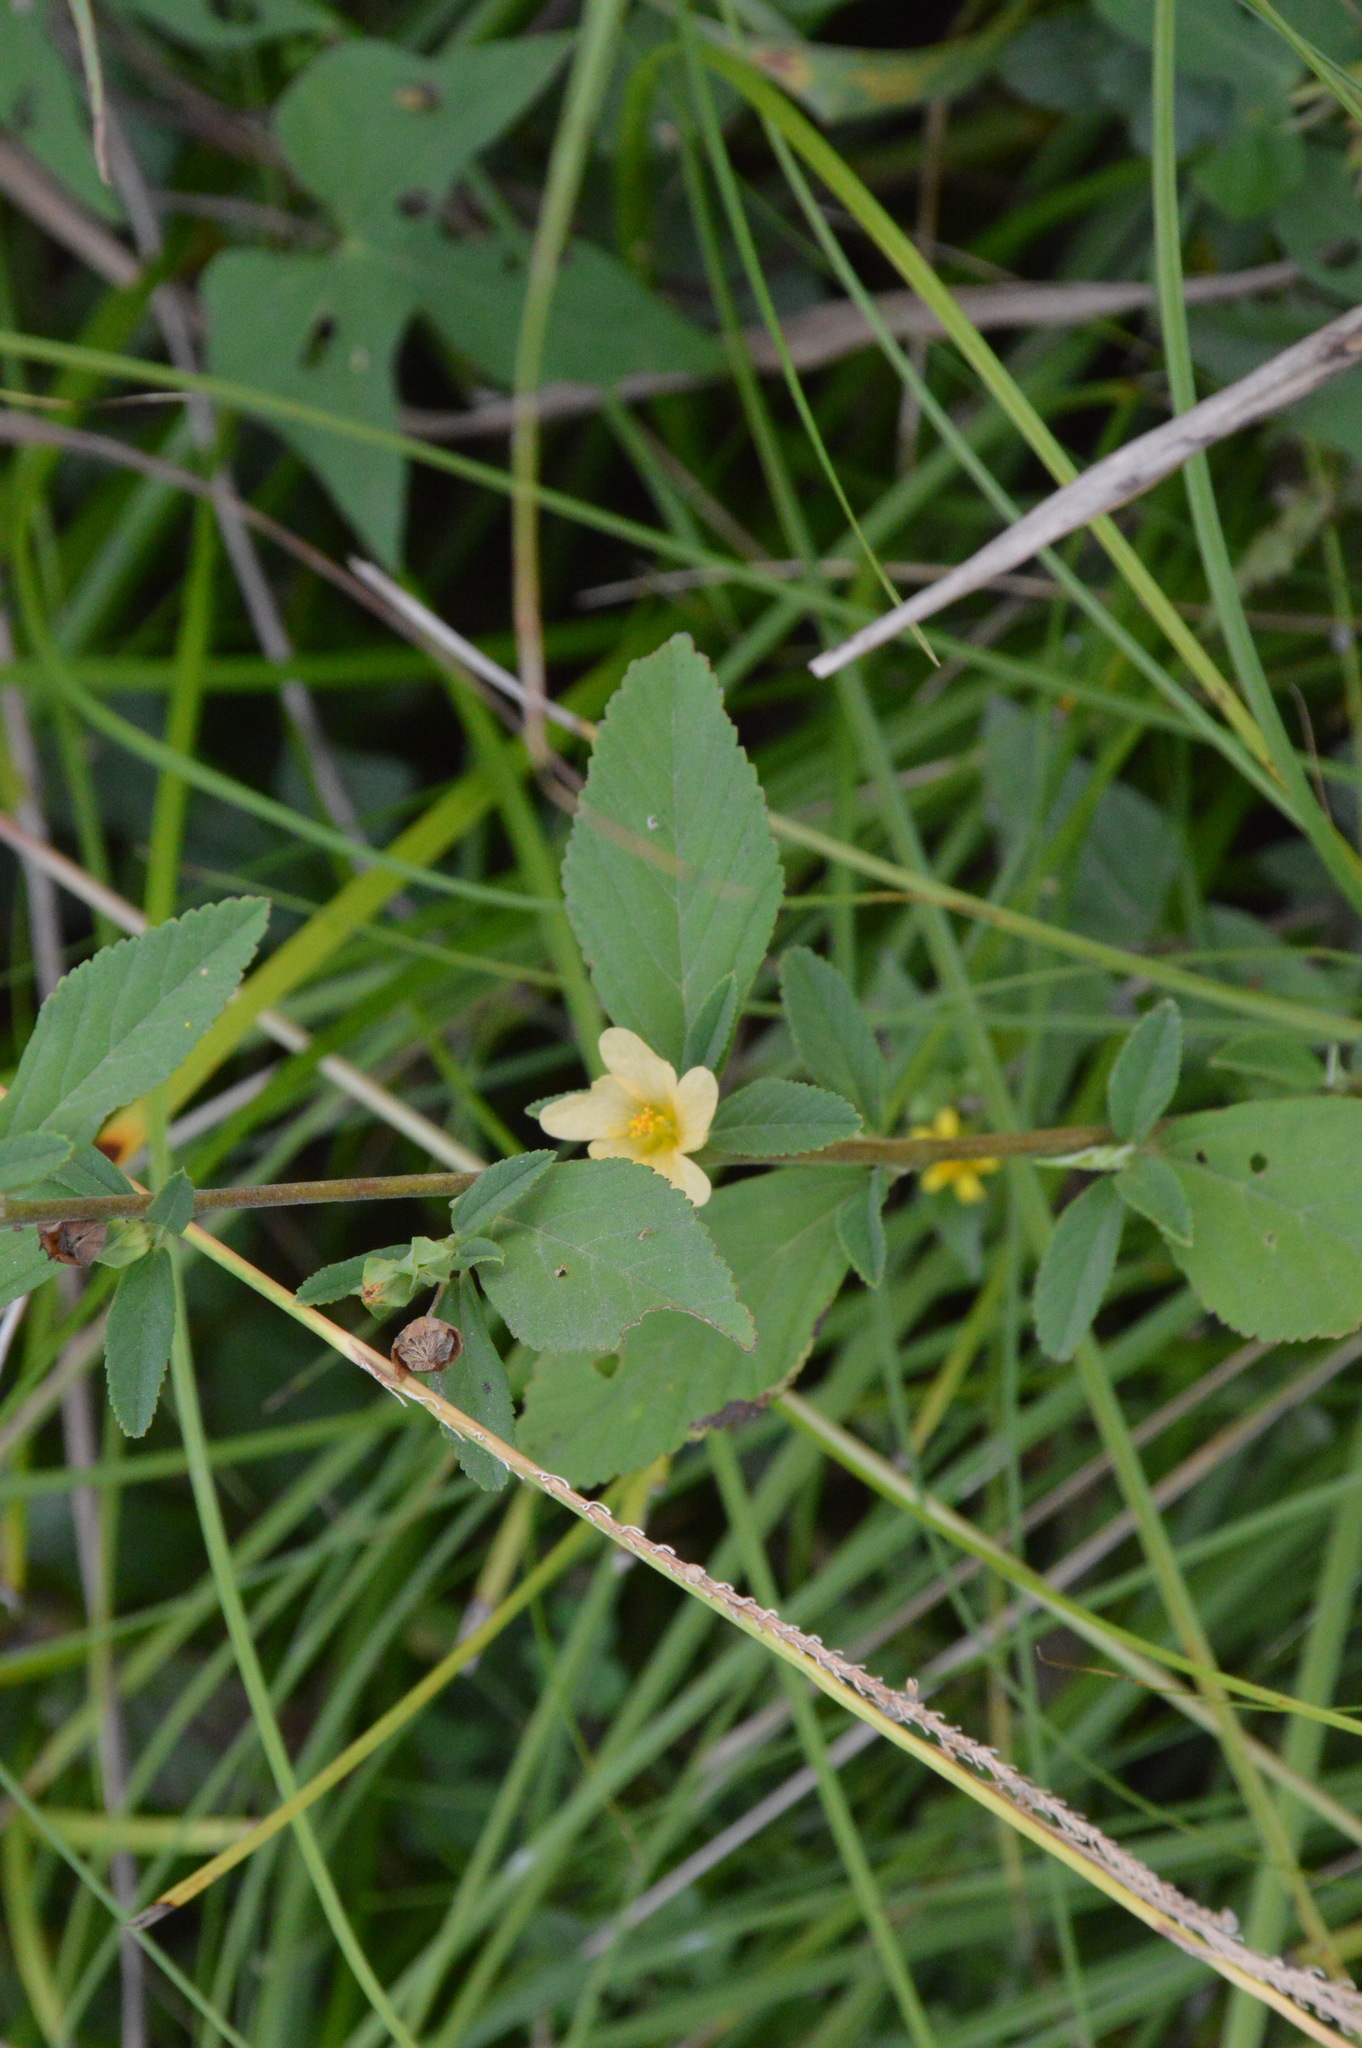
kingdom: Plantae
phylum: Tracheophyta
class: Magnoliopsida
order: Malvales
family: Malvaceae
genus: Sida
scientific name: Sida rhombifolia
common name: Queensland-hemp
